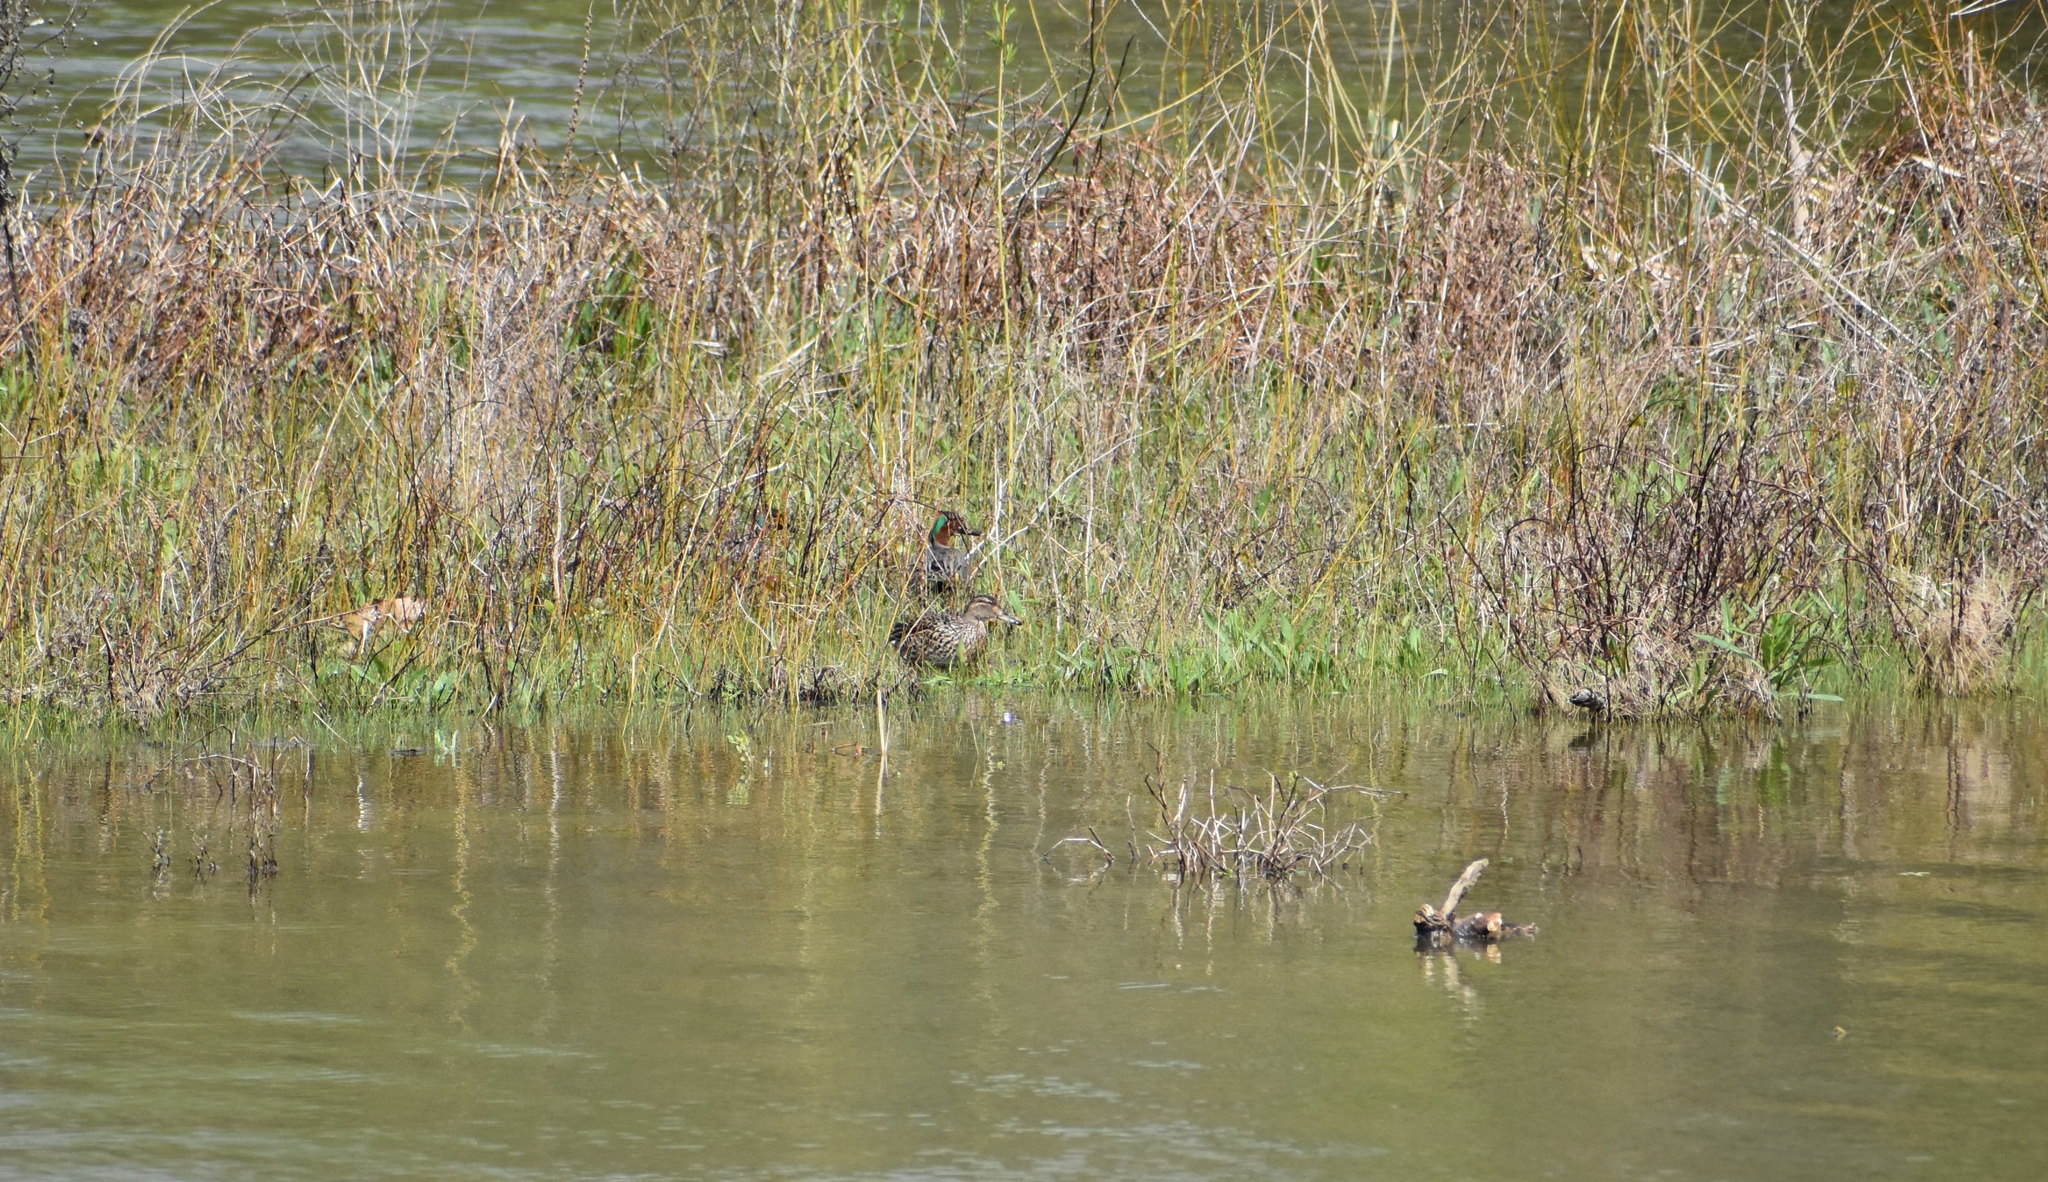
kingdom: Animalia
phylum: Chordata
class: Aves
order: Anseriformes
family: Anatidae
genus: Anas
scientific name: Anas crecca
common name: Eurasian teal
